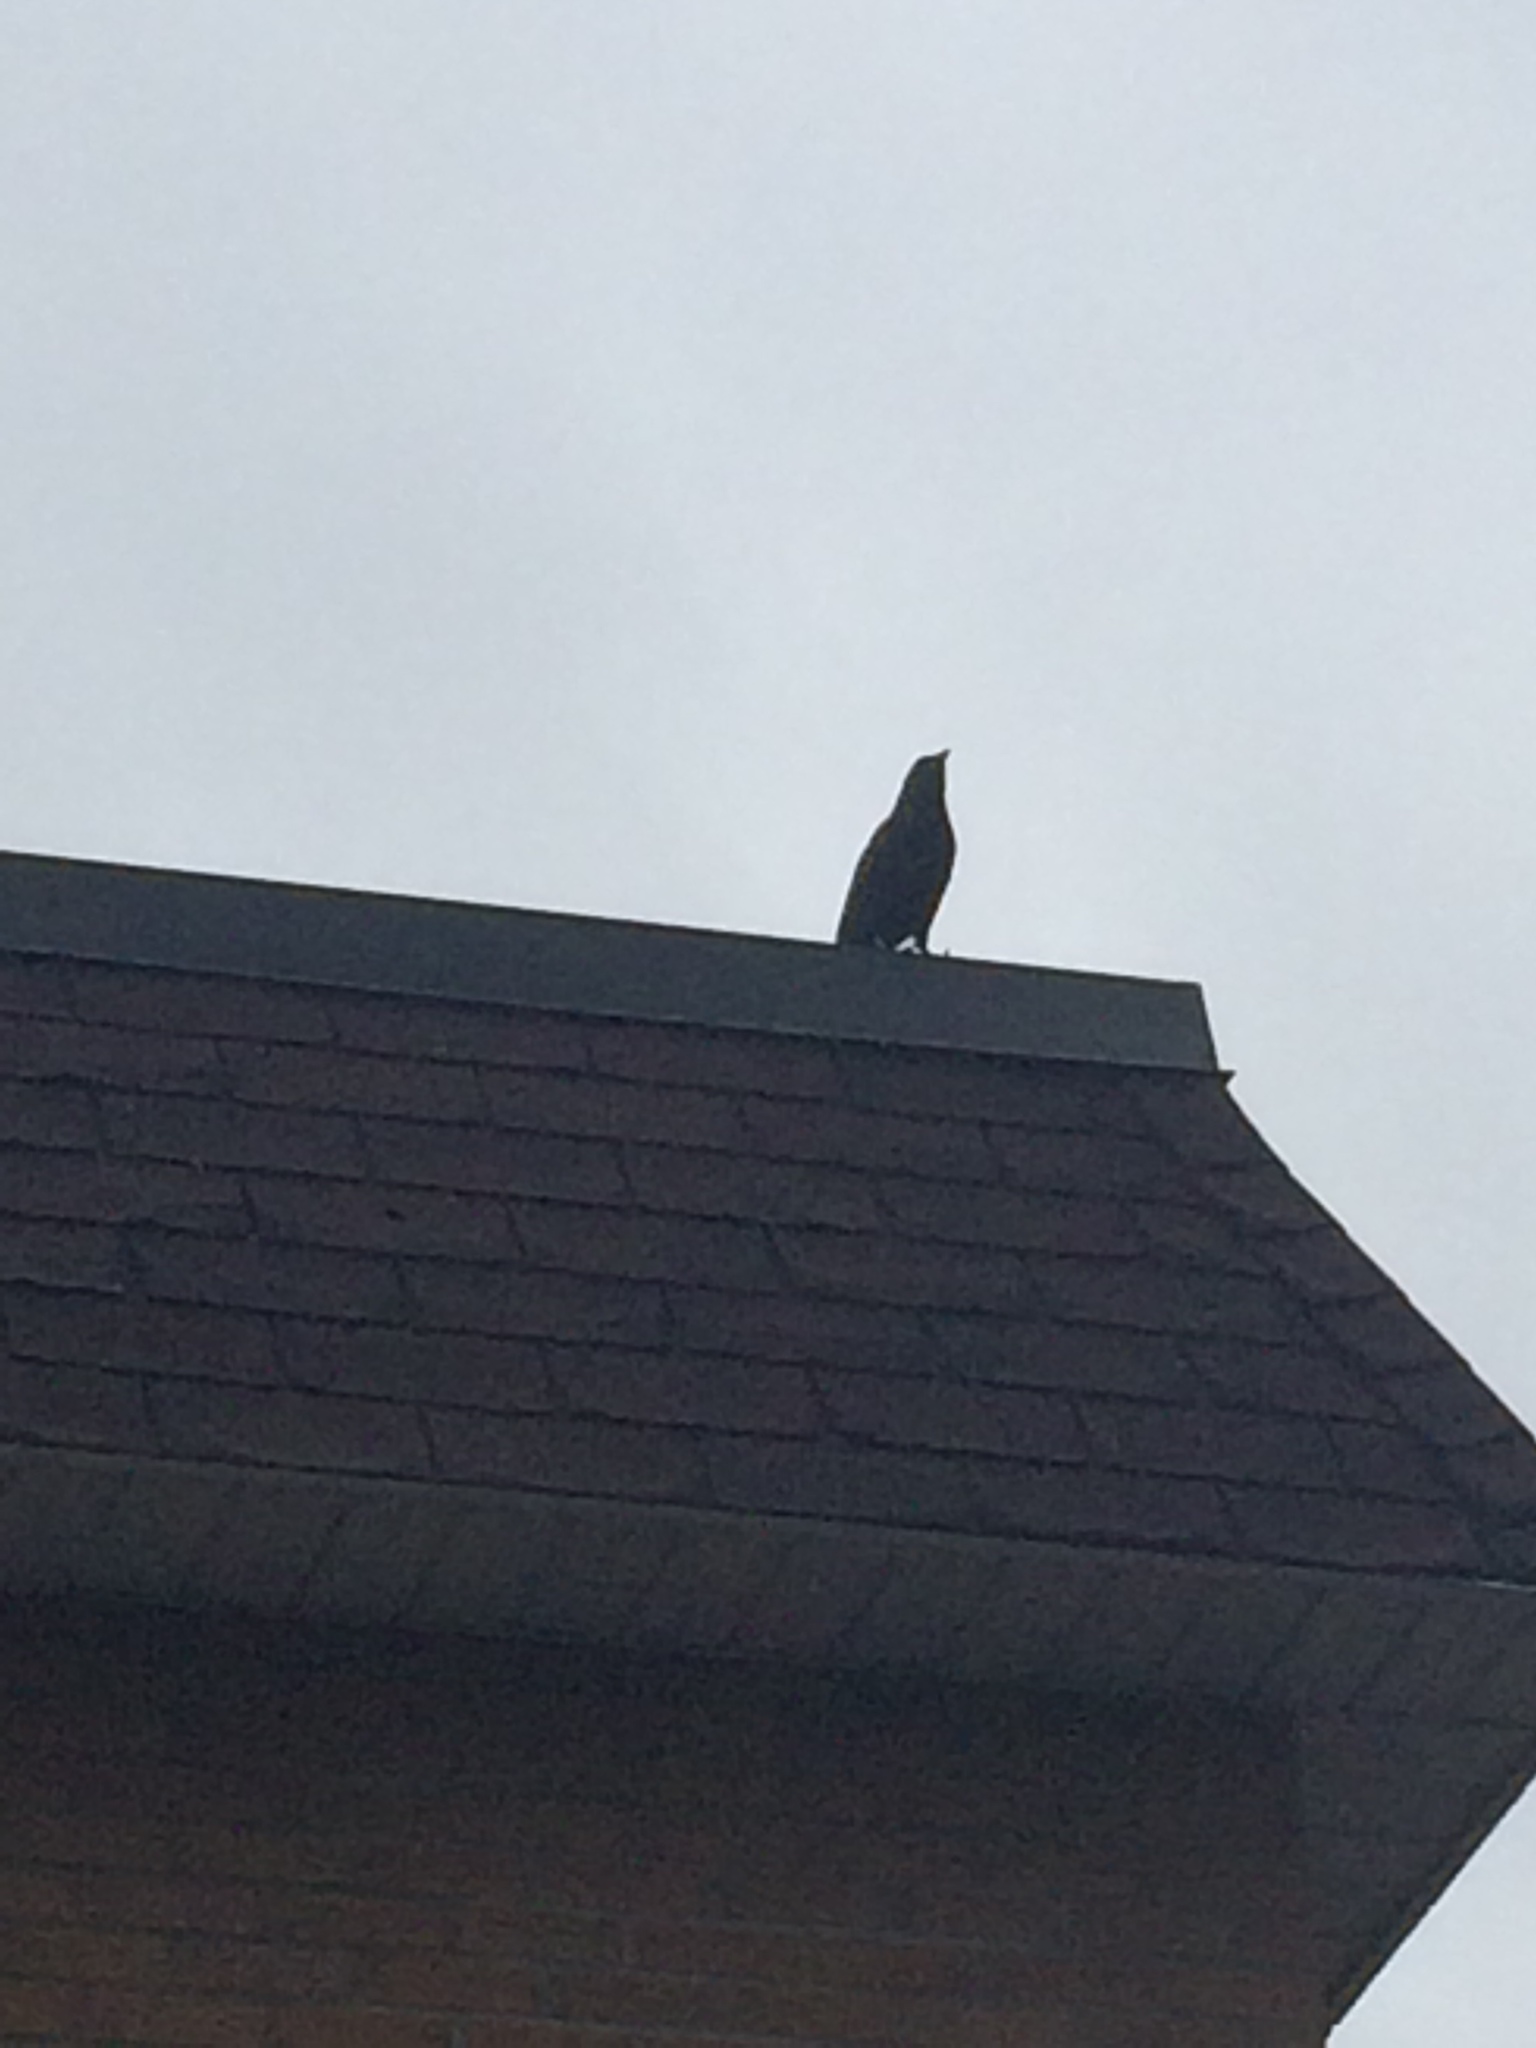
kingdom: Animalia
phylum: Chordata
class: Aves
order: Passeriformes
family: Corvidae
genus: Corvus
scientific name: Corvus brachyrhynchos
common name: American crow
